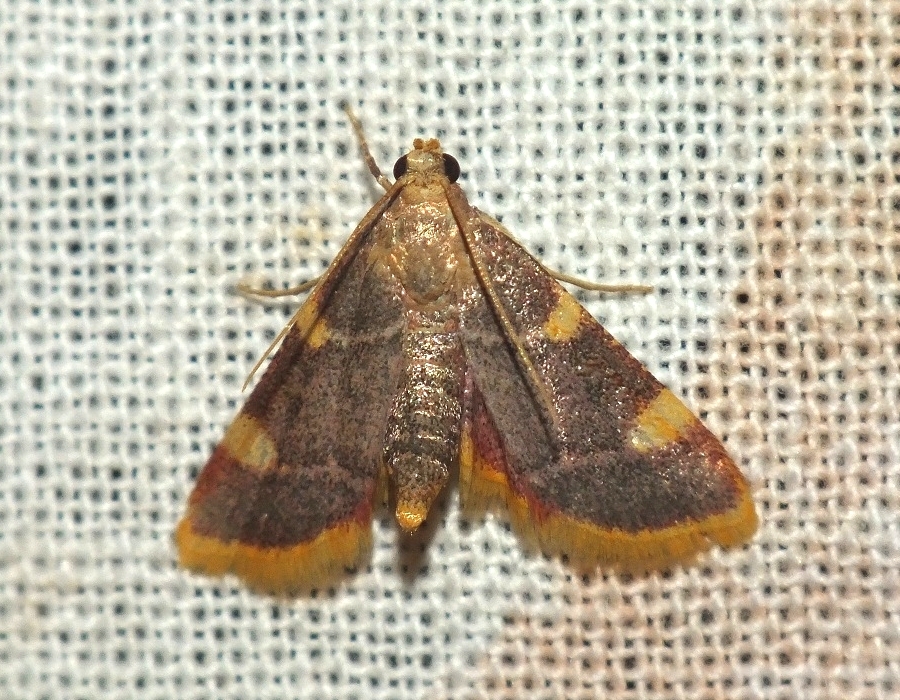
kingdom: Animalia
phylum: Arthropoda
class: Insecta
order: Lepidoptera
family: Pyralidae
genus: Hypsopygia
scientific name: Hypsopygia costalis
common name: Gold triangle
